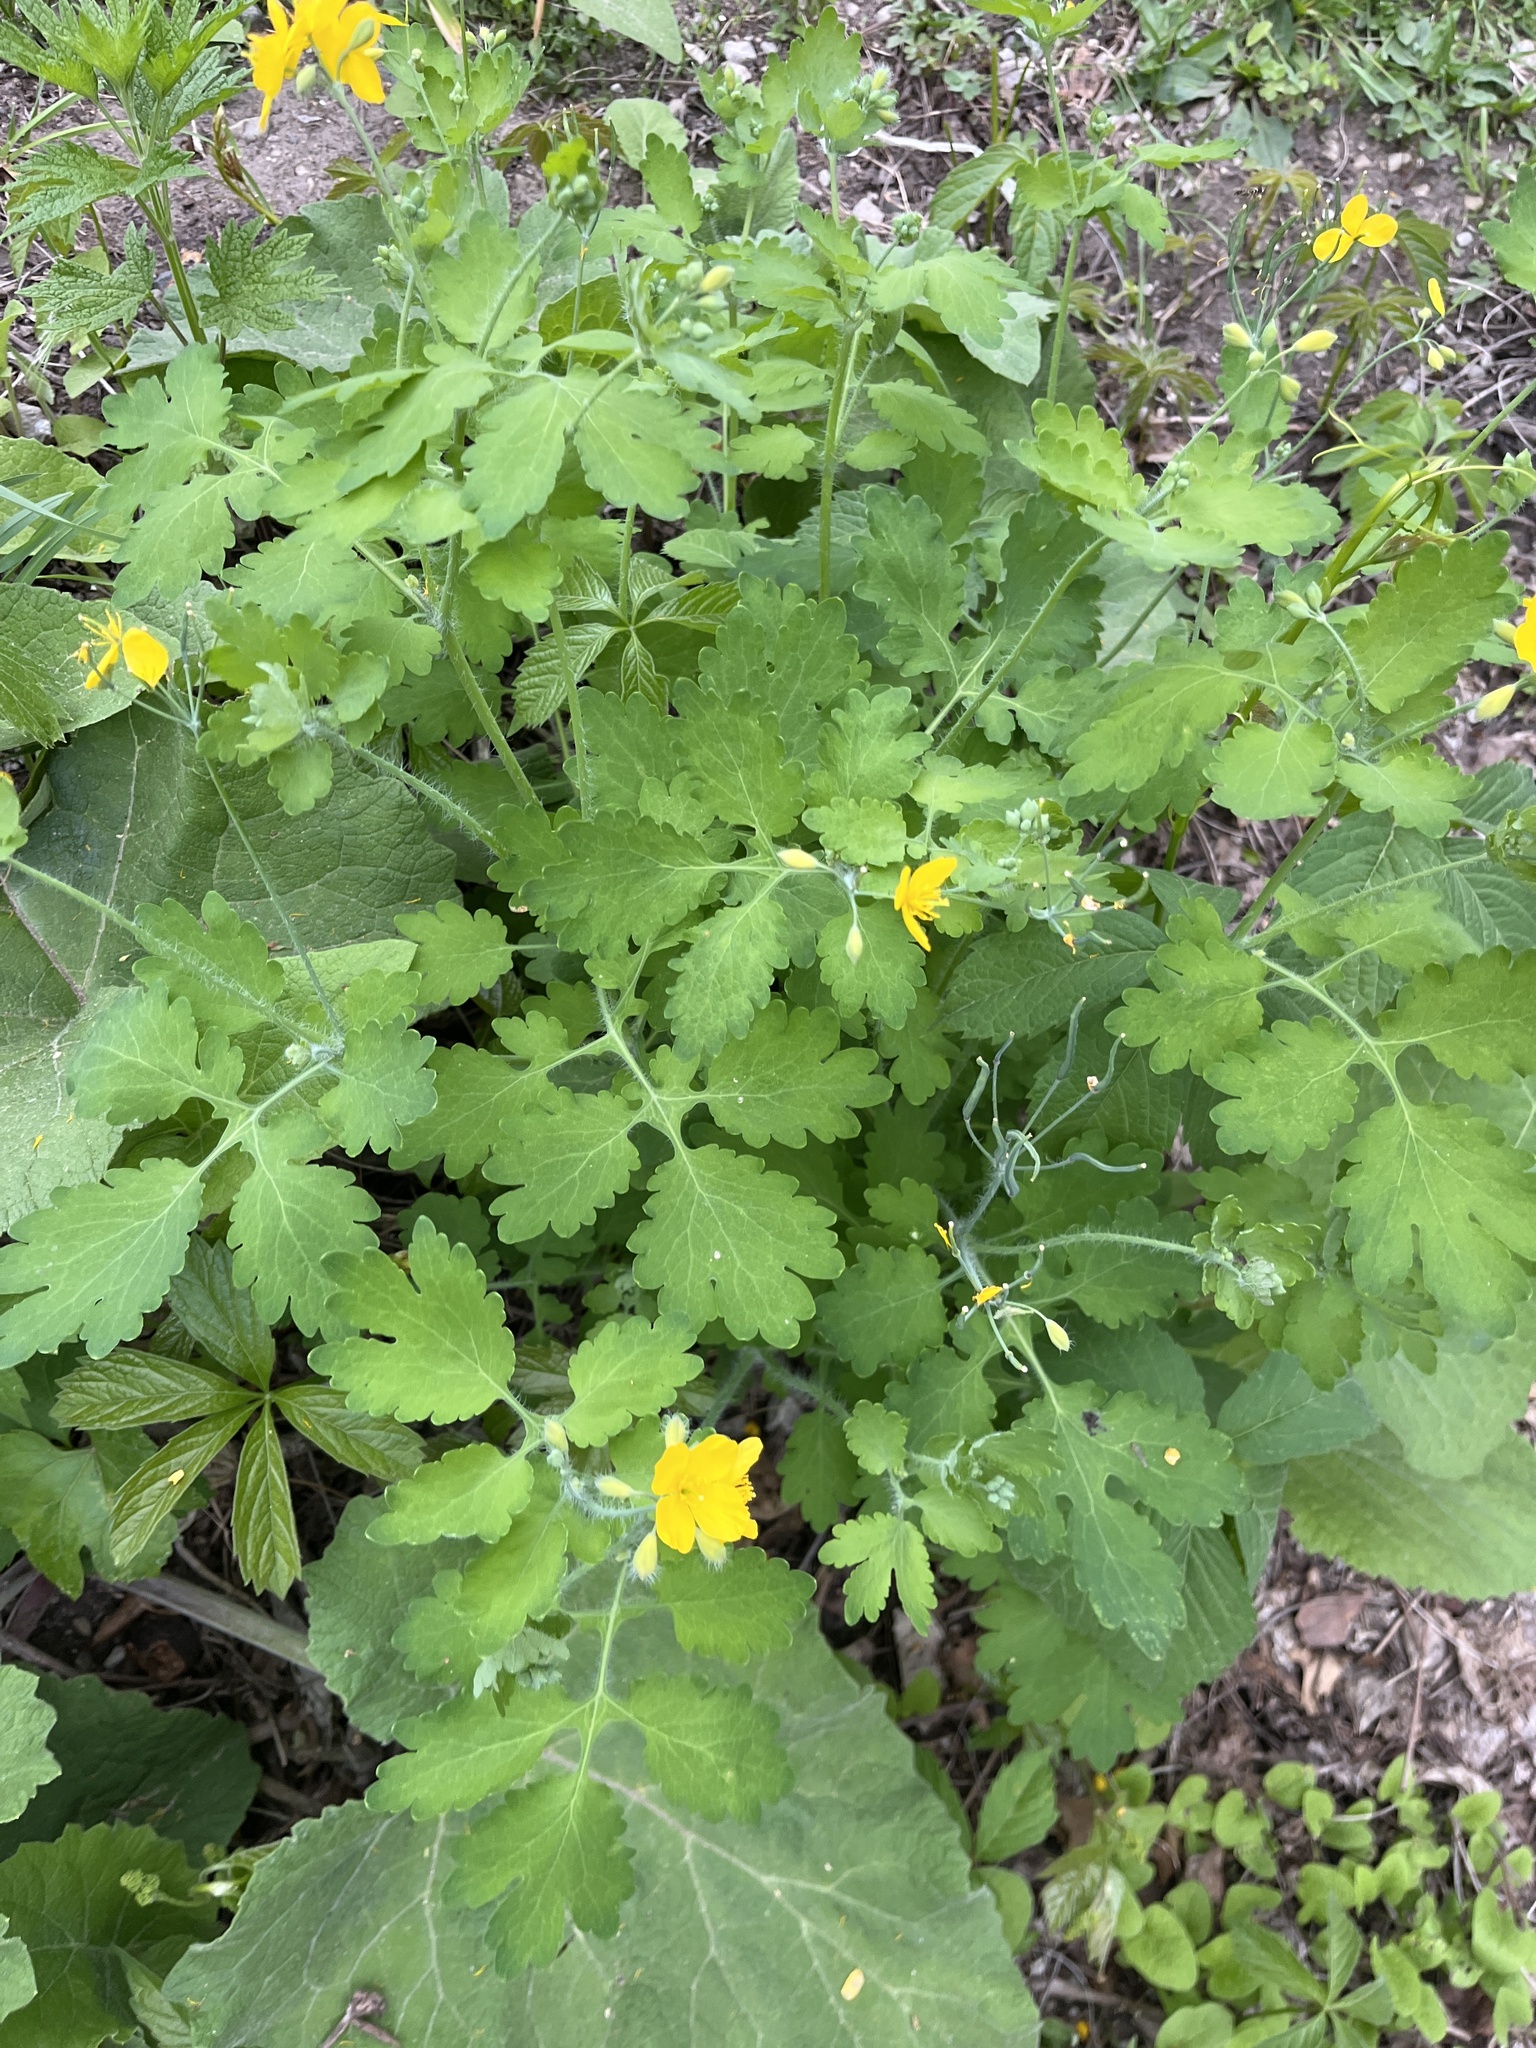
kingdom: Plantae
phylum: Tracheophyta
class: Magnoliopsida
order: Ranunculales
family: Papaveraceae
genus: Chelidonium
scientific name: Chelidonium majus
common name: Greater celandine
